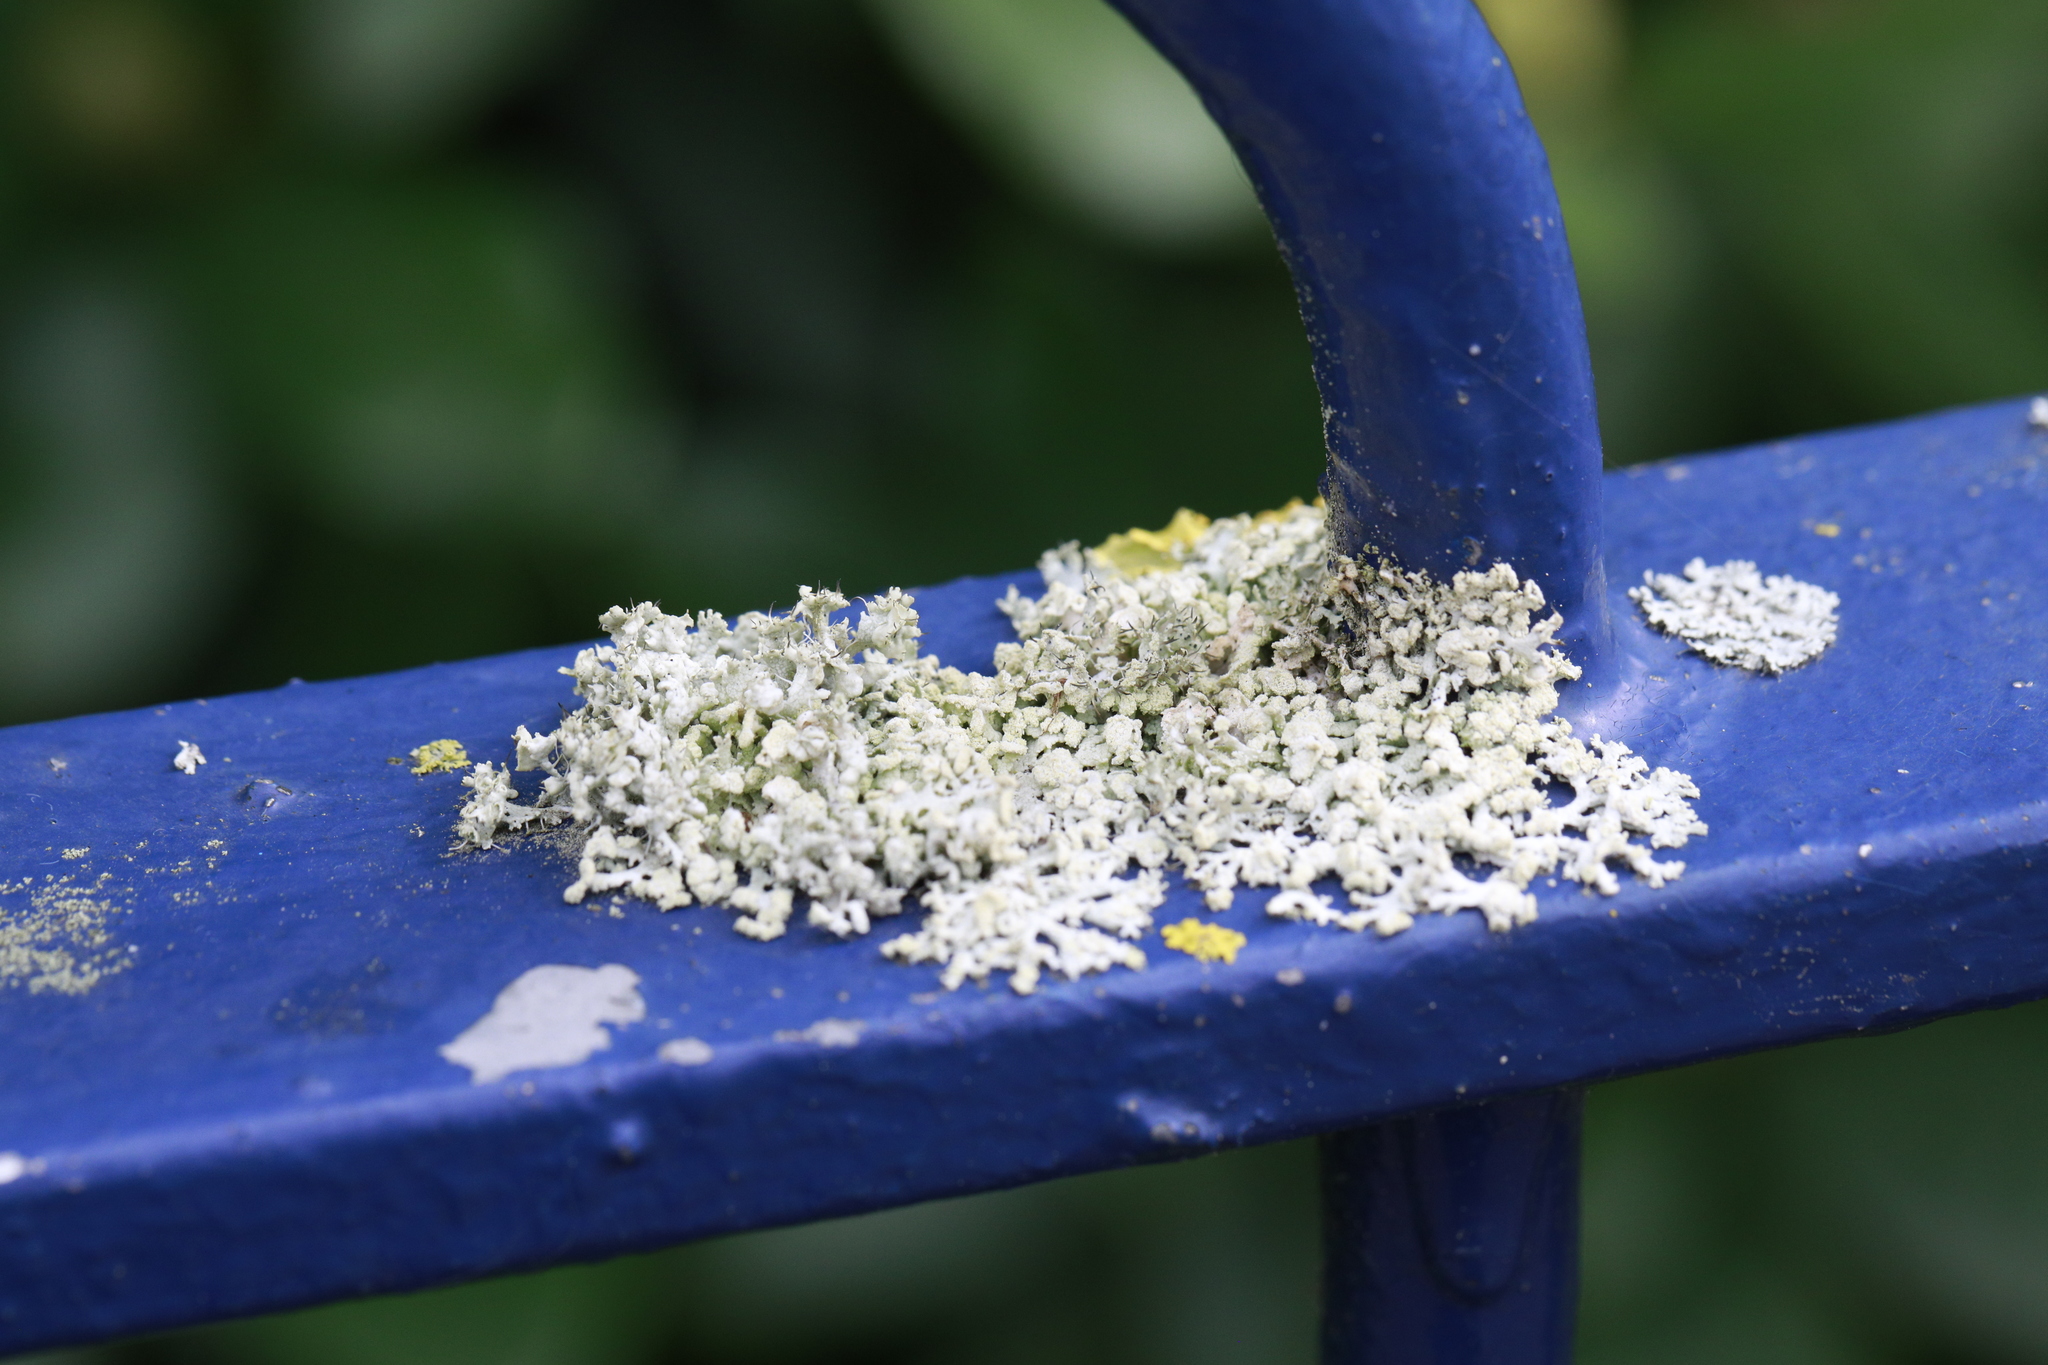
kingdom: Fungi
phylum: Ascomycota
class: Lecanoromycetes
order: Caliciales
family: Physciaceae
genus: Physcia
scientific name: Physcia adscendens
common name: Hooded rosette lichen
